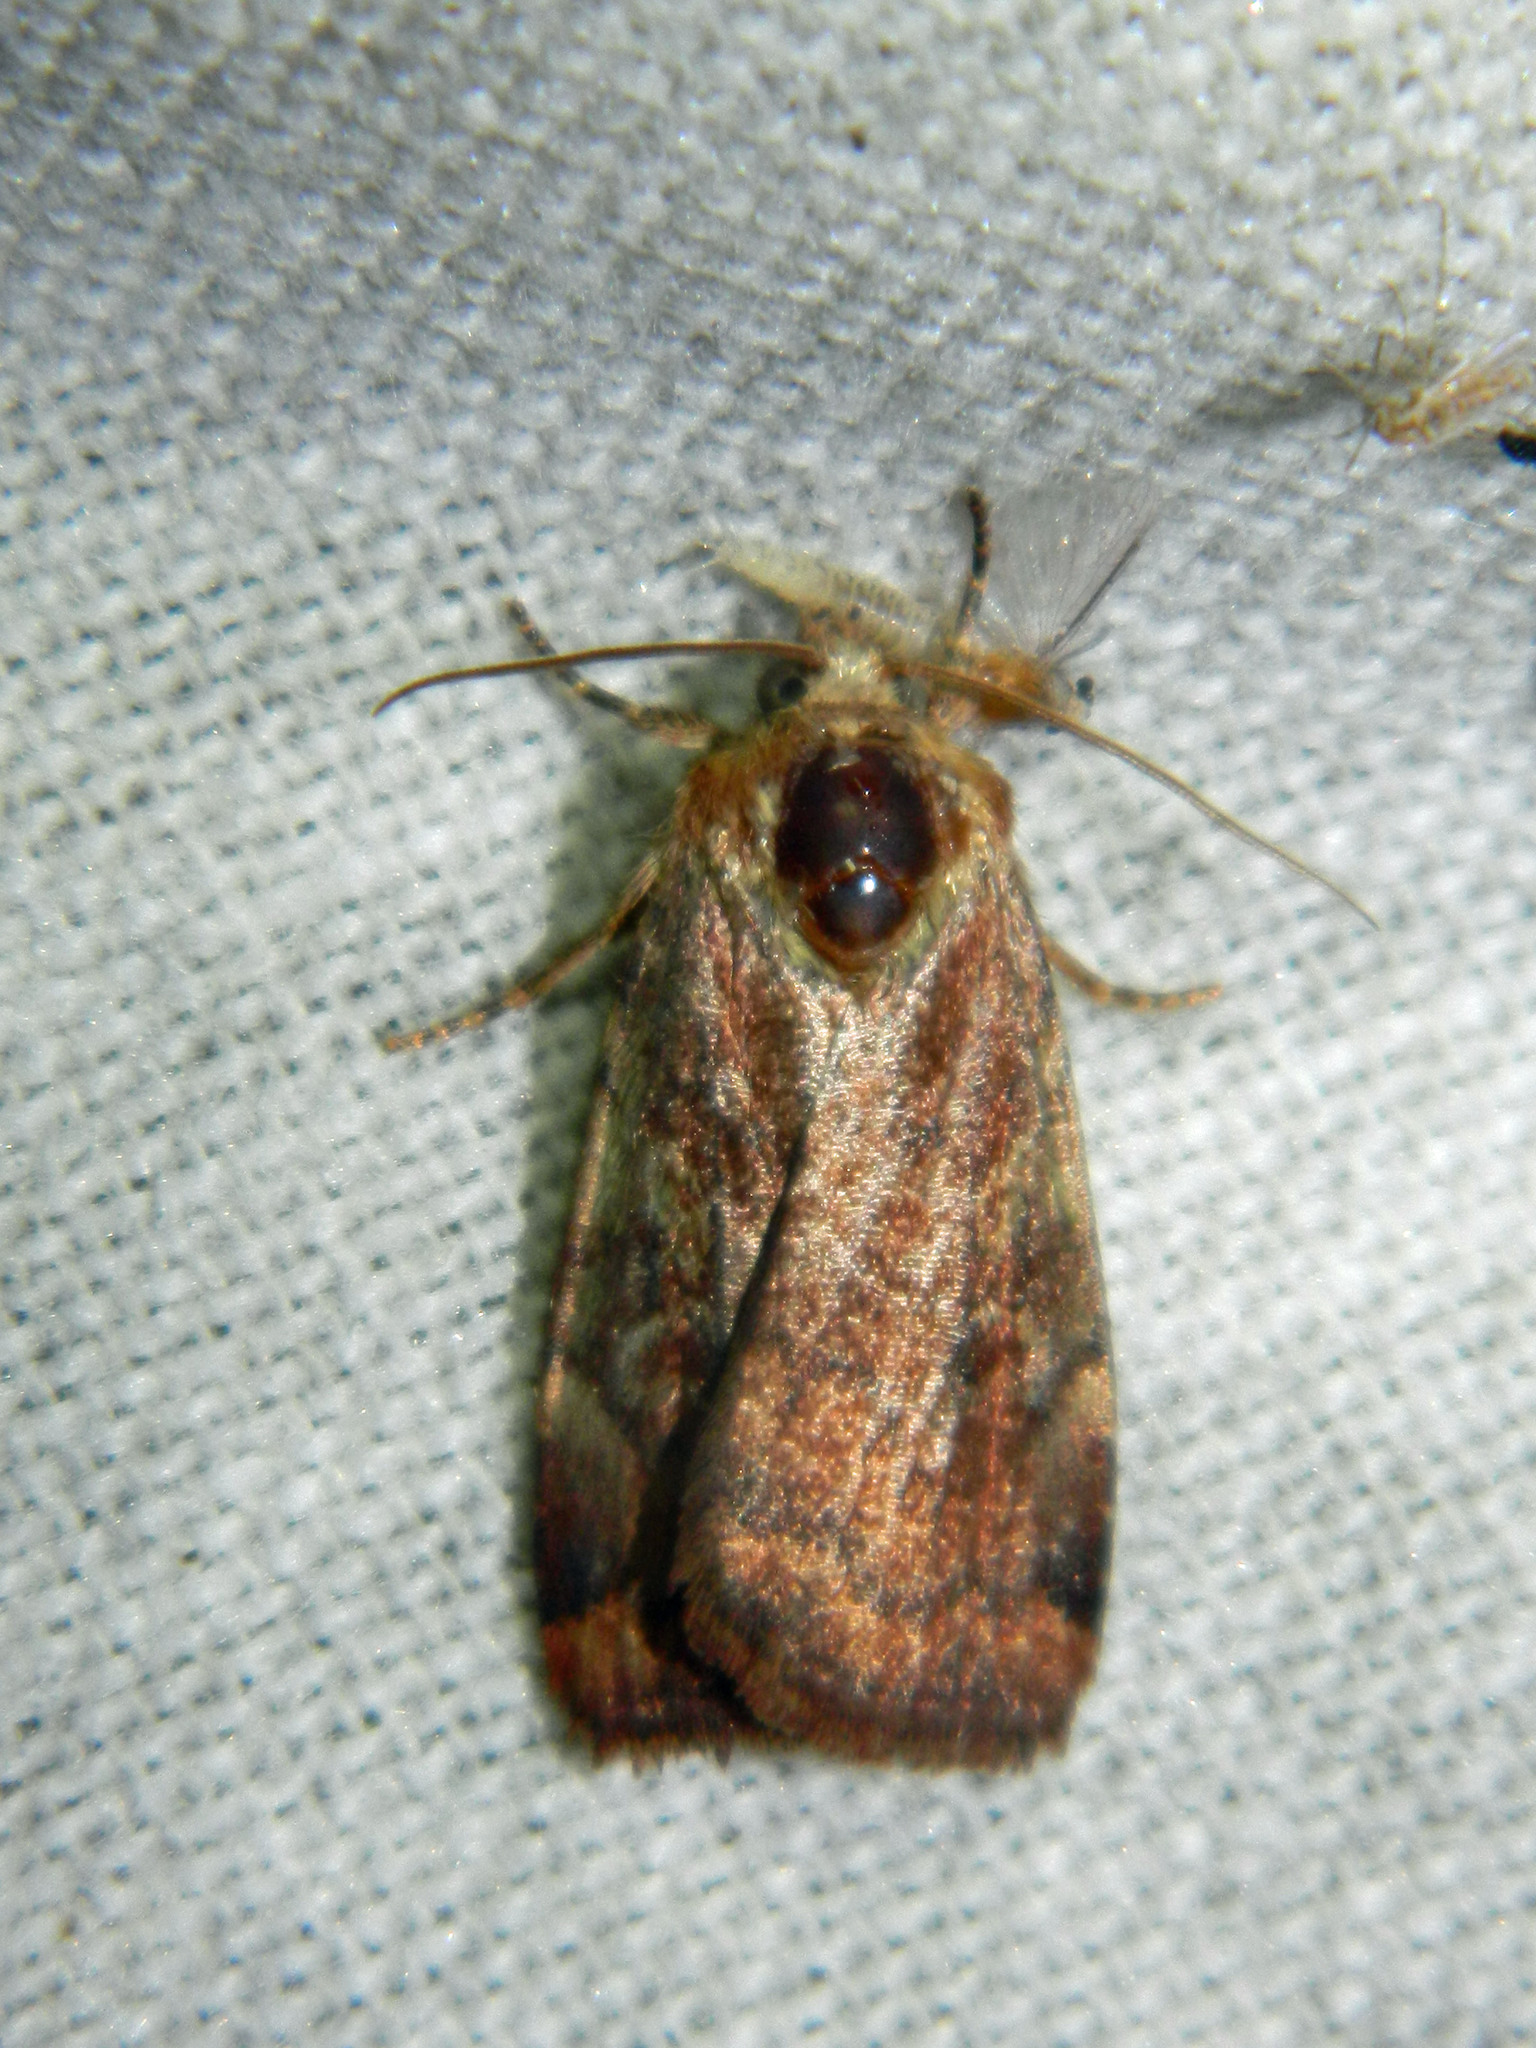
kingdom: Animalia
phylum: Arthropoda
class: Insecta
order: Lepidoptera
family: Noctuidae
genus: Cryptocala
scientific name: Cryptocala acadiensis
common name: Catocaline dart
